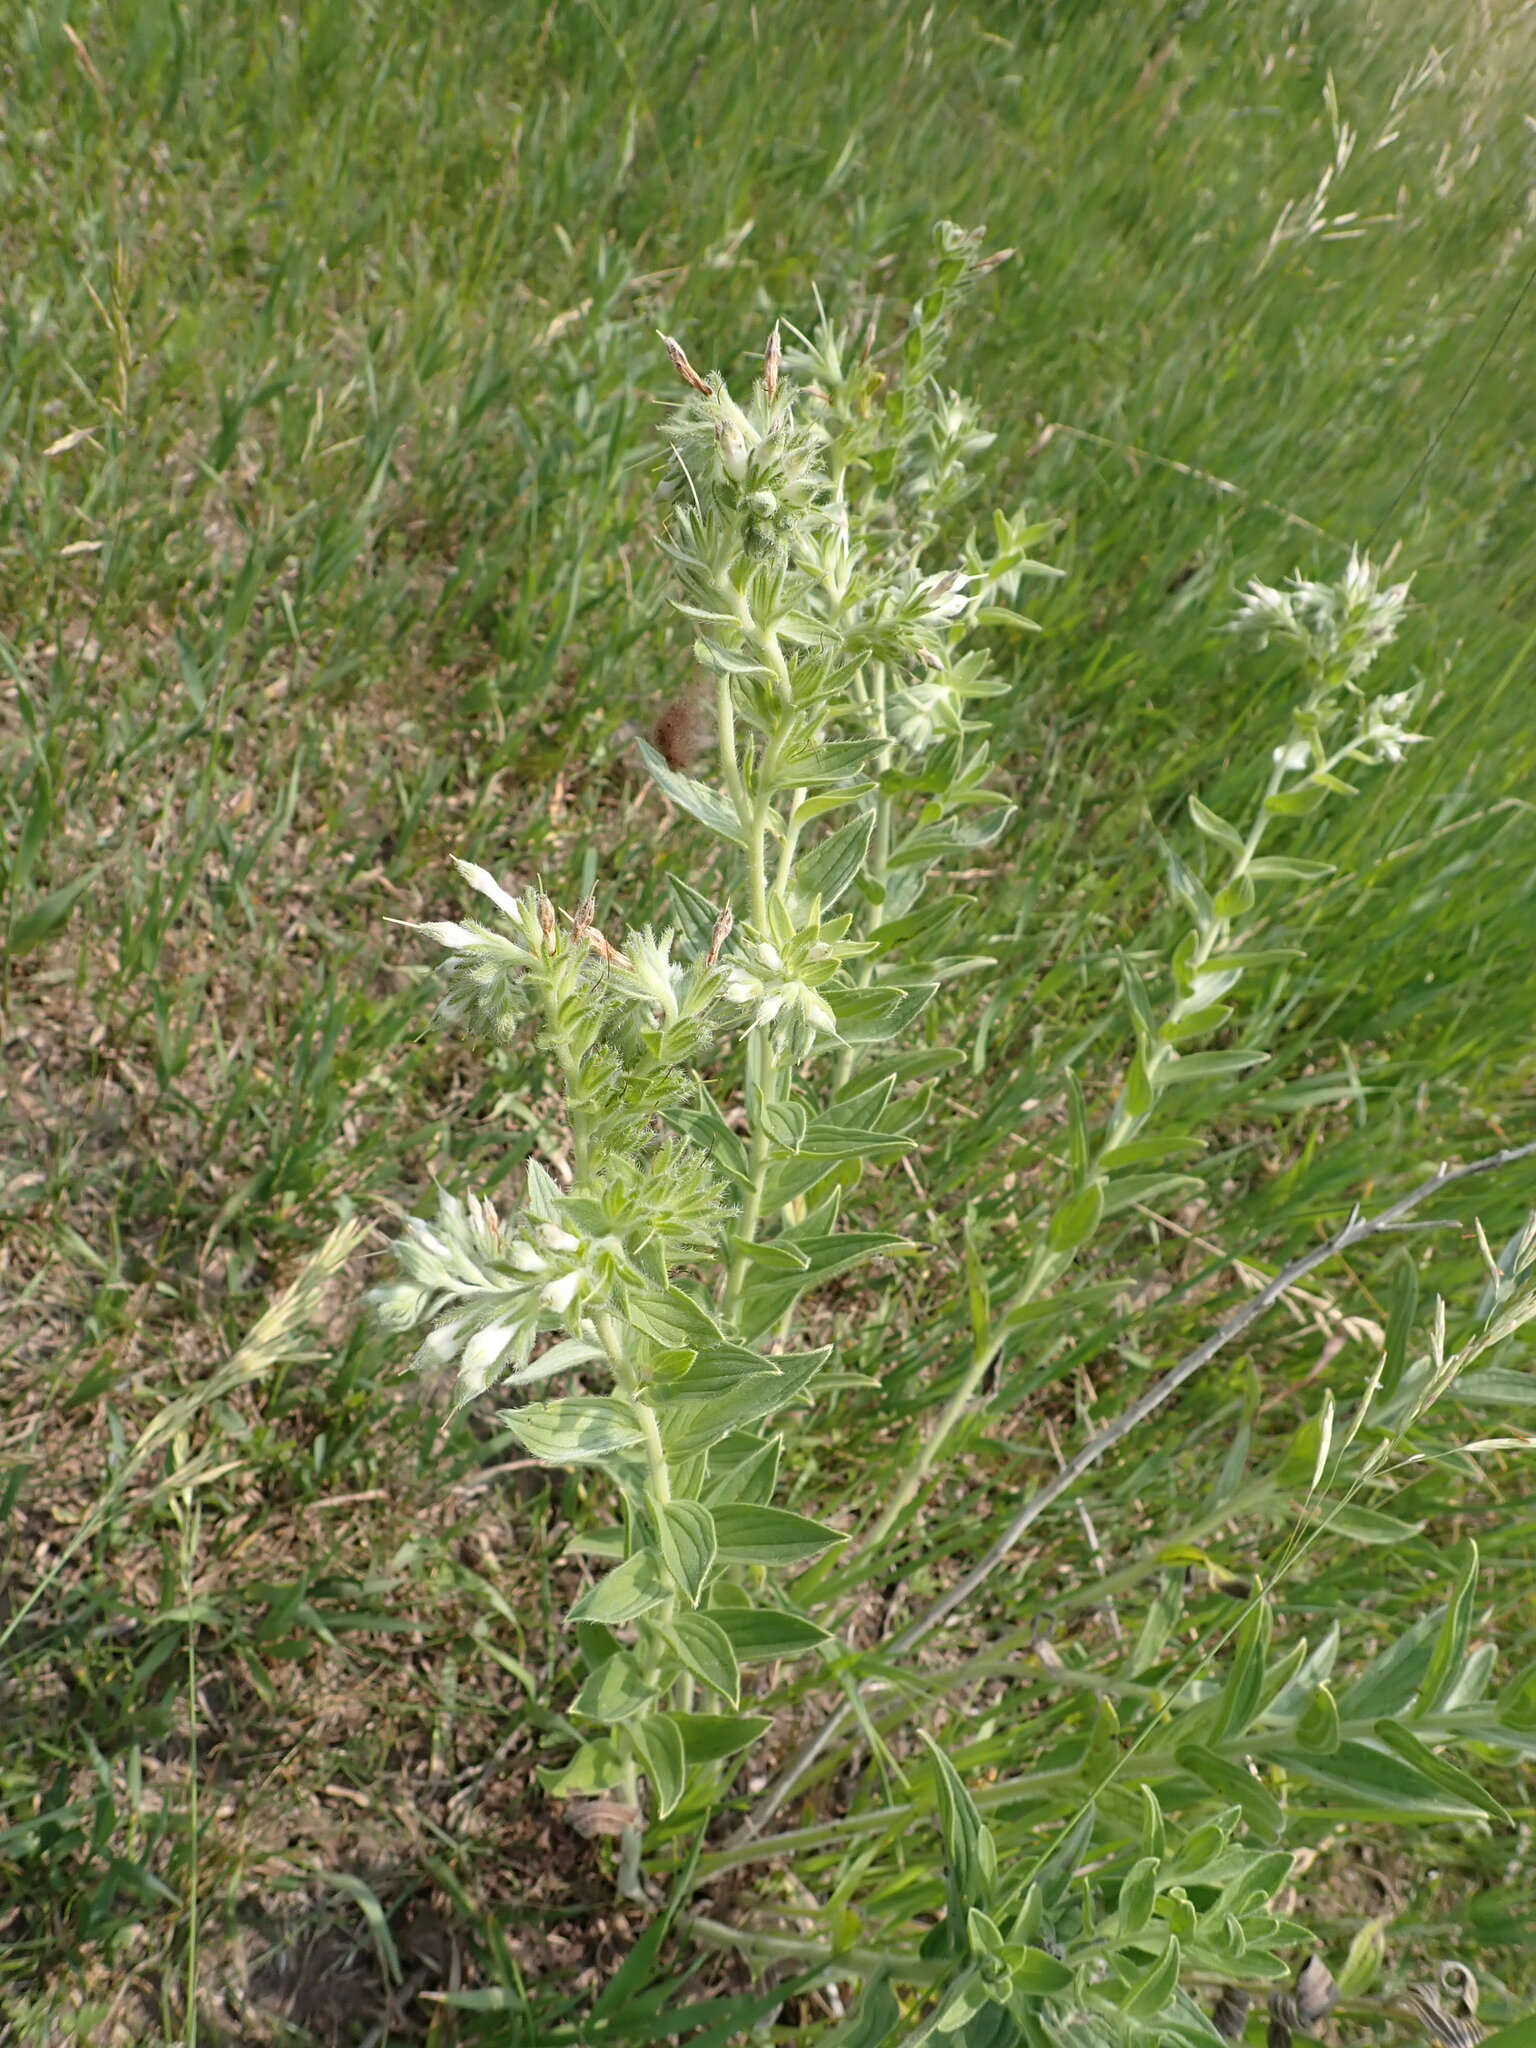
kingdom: Plantae
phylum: Tracheophyta
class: Magnoliopsida
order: Boraginales
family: Boraginaceae
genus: Lithospermum
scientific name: Lithospermum parviflorum
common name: Hairy false gromwell
